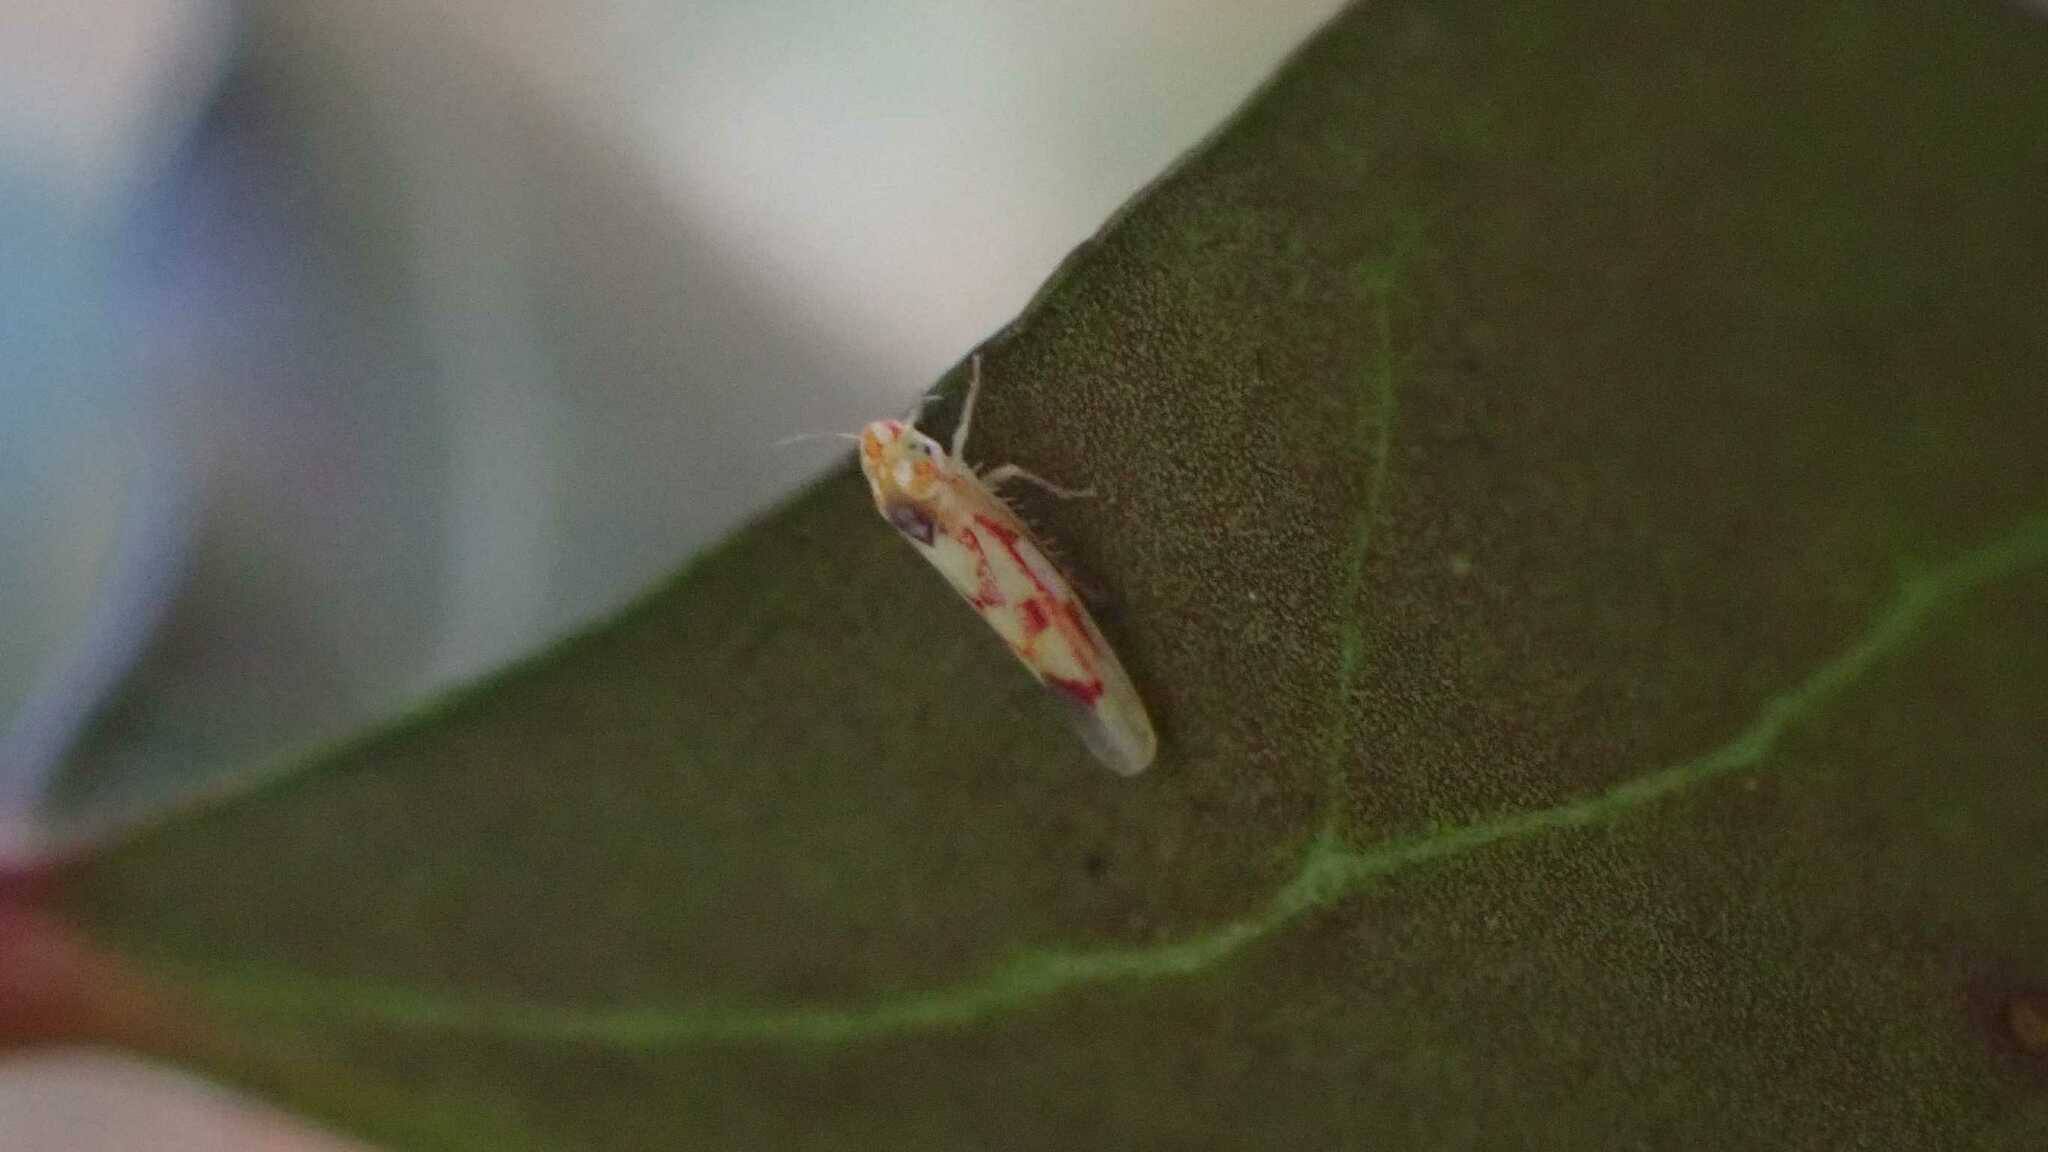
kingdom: Animalia
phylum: Arthropoda
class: Insecta
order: Hemiptera
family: Cicadellidae
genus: Zygina
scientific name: Zygina flammigera
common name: Leafhopper
